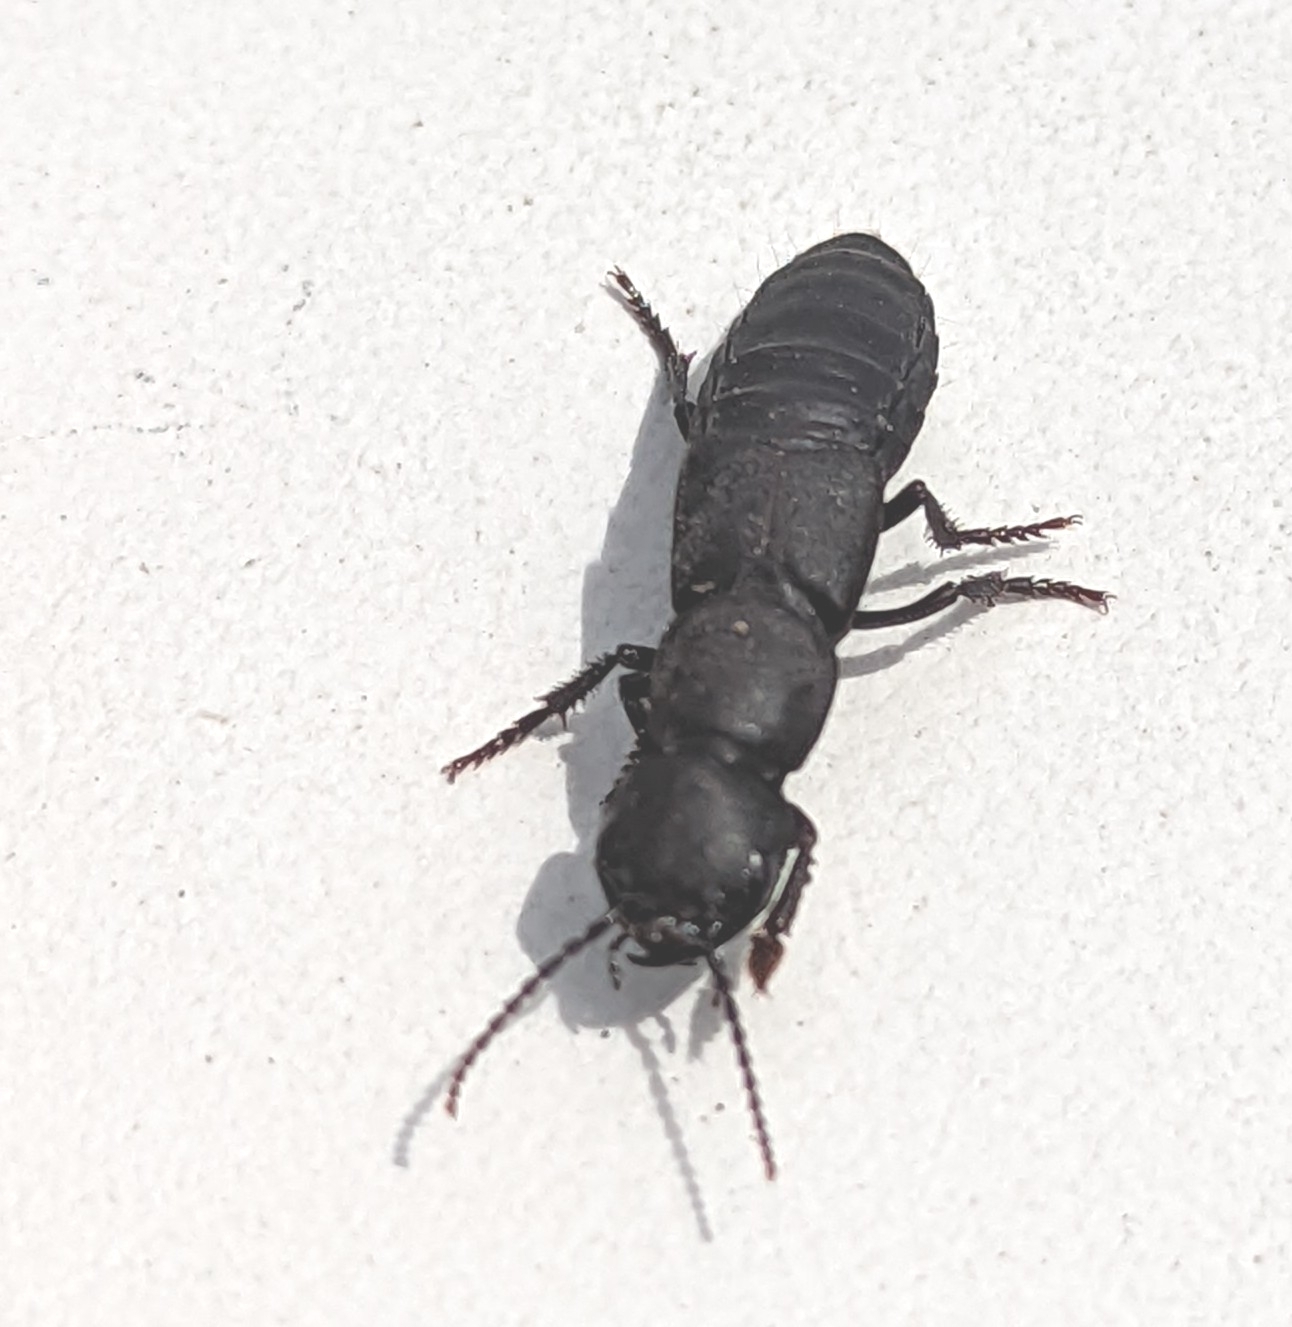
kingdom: Animalia
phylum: Arthropoda
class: Insecta
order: Coleoptera
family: Staphylinidae
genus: Ocypus
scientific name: Ocypus olens
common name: Devil's coach-horse
